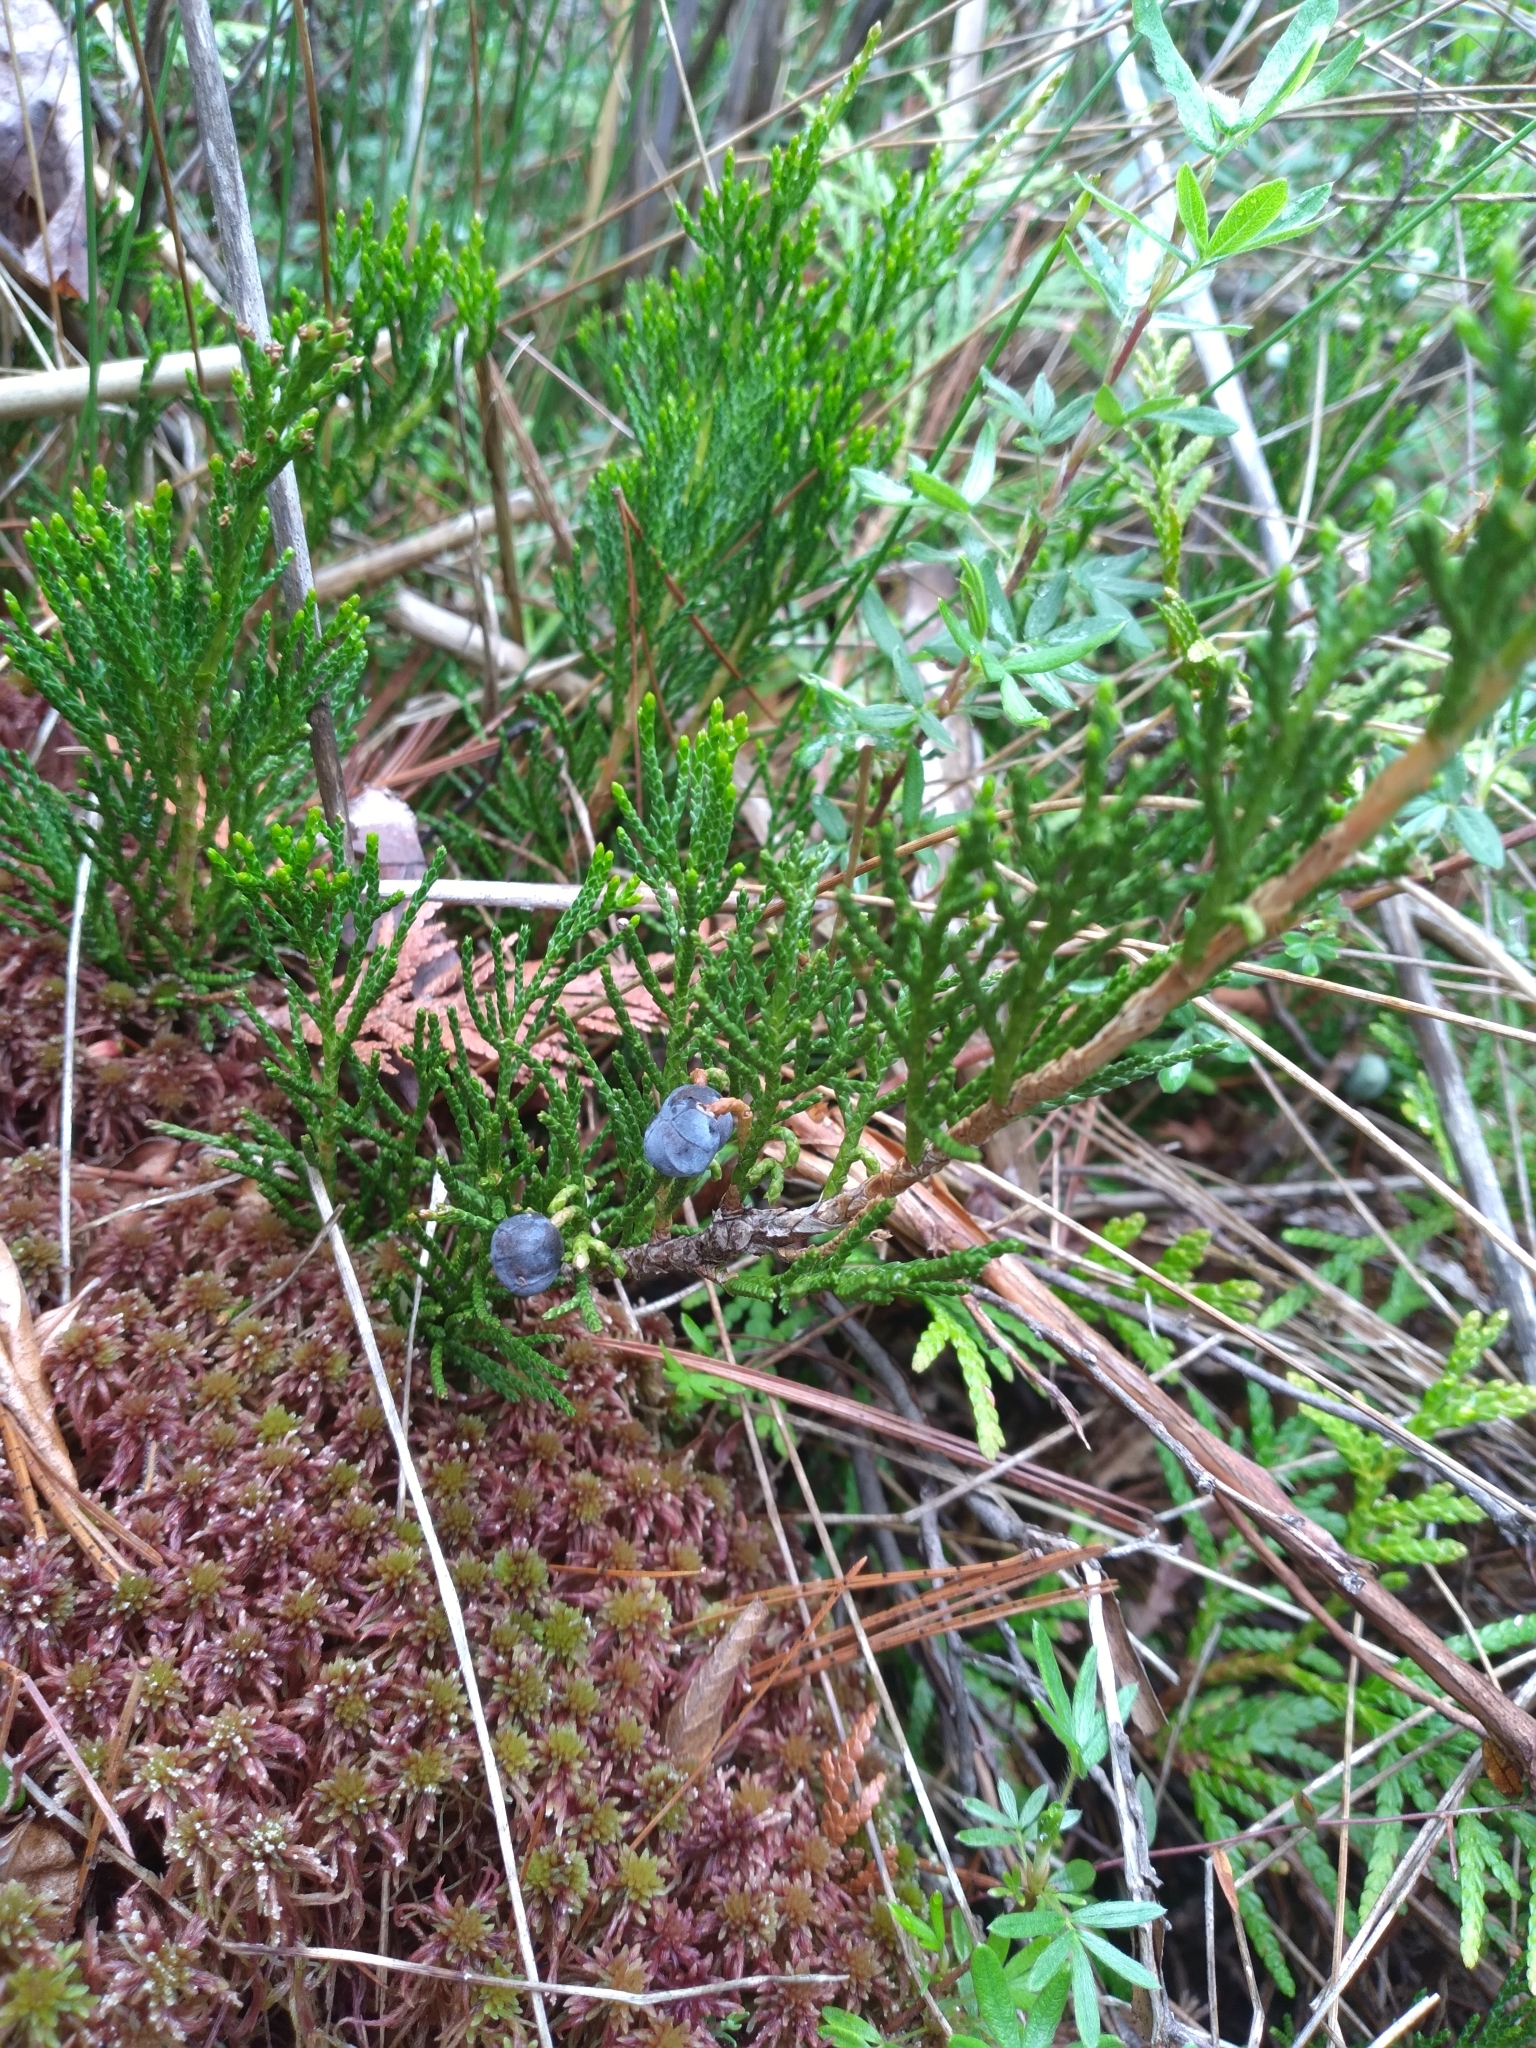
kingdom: Plantae
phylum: Tracheophyta
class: Pinopsida
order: Pinales
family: Cupressaceae
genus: Juniperus
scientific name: Juniperus horizontalis
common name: Creeping juniper
